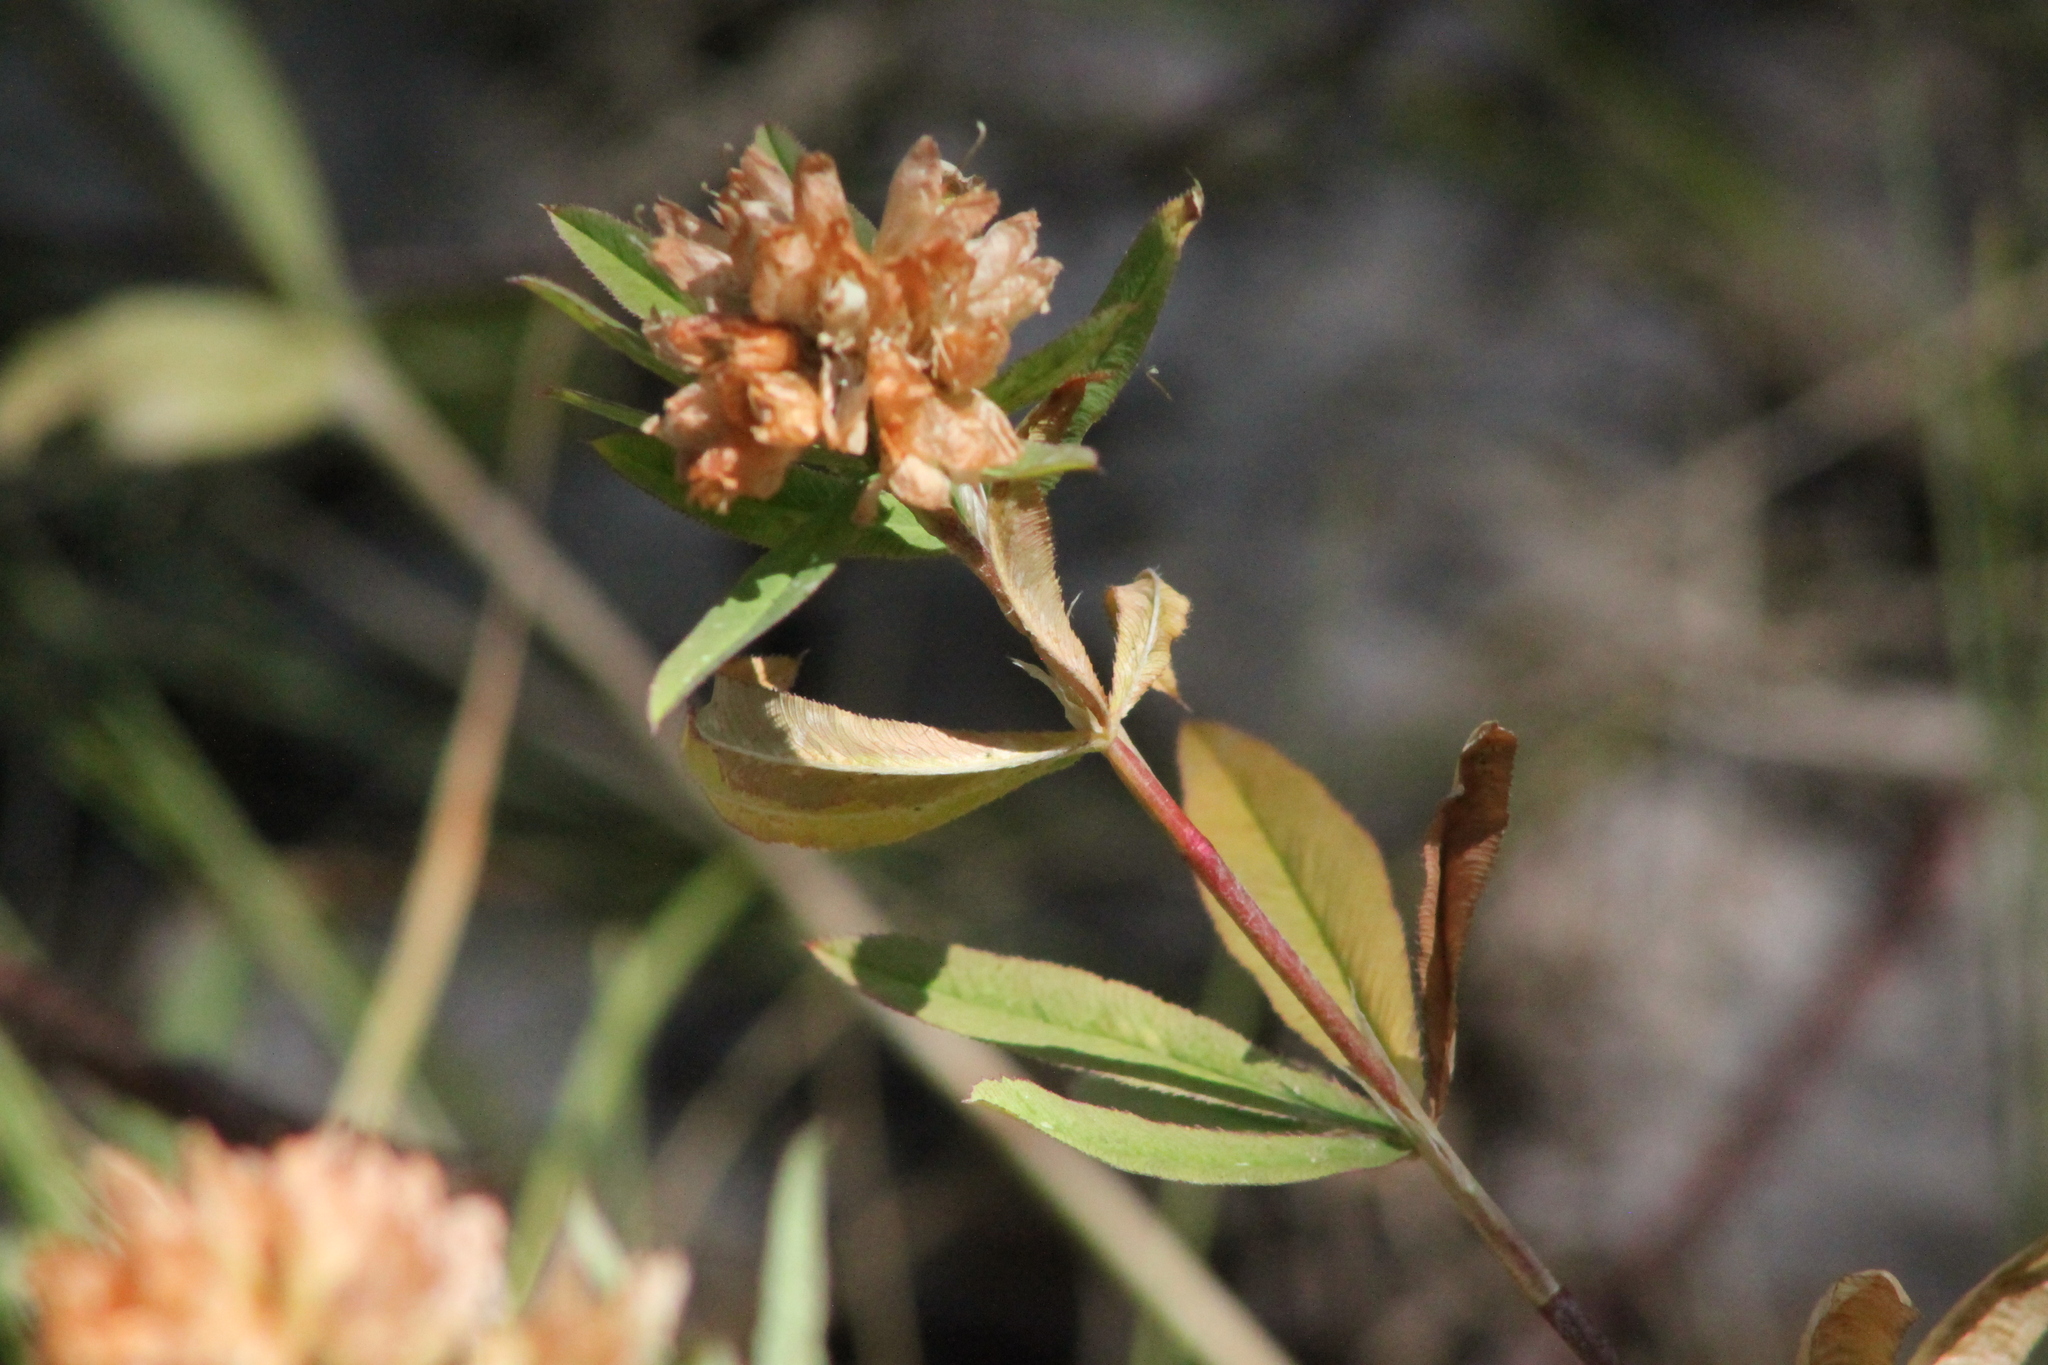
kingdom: Plantae
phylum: Tracheophyta
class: Magnoliopsida
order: Fabales
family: Fabaceae
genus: Trifolium
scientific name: Trifolium lupinaster
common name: Lupine clover
